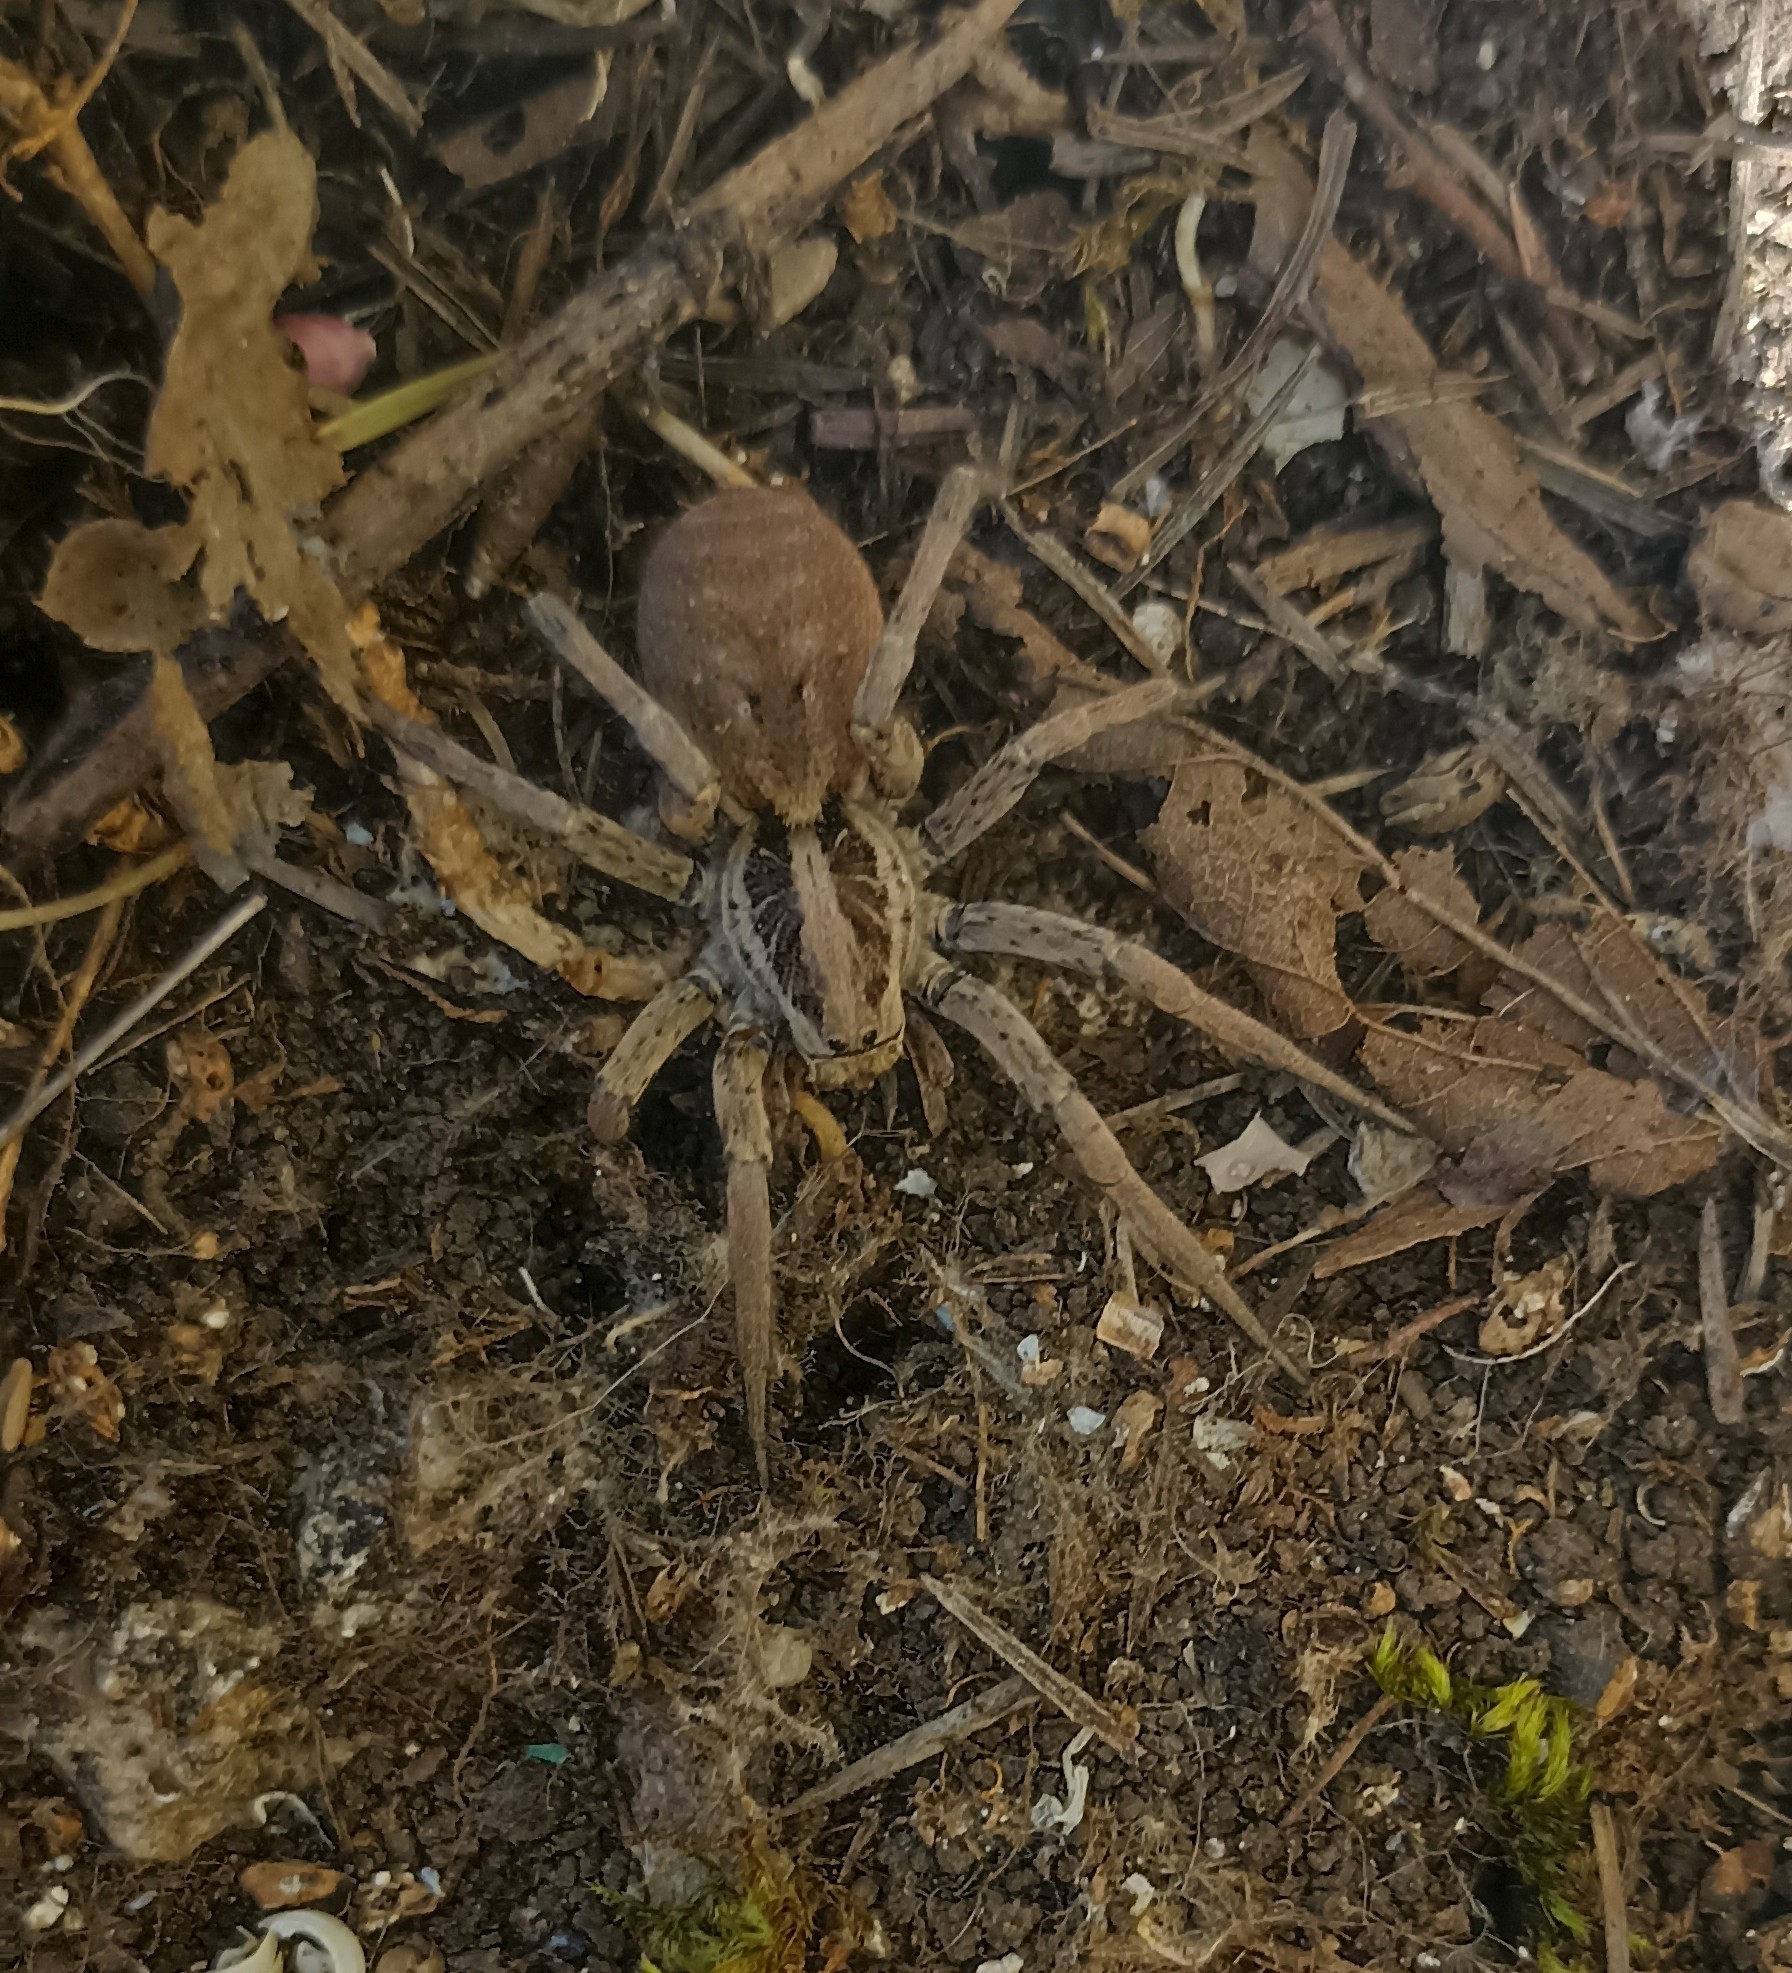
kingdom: Animalia
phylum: Arthropoda
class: Arachnida
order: Araneae
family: Lycosidae
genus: Hogna
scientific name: Hogna radiata
